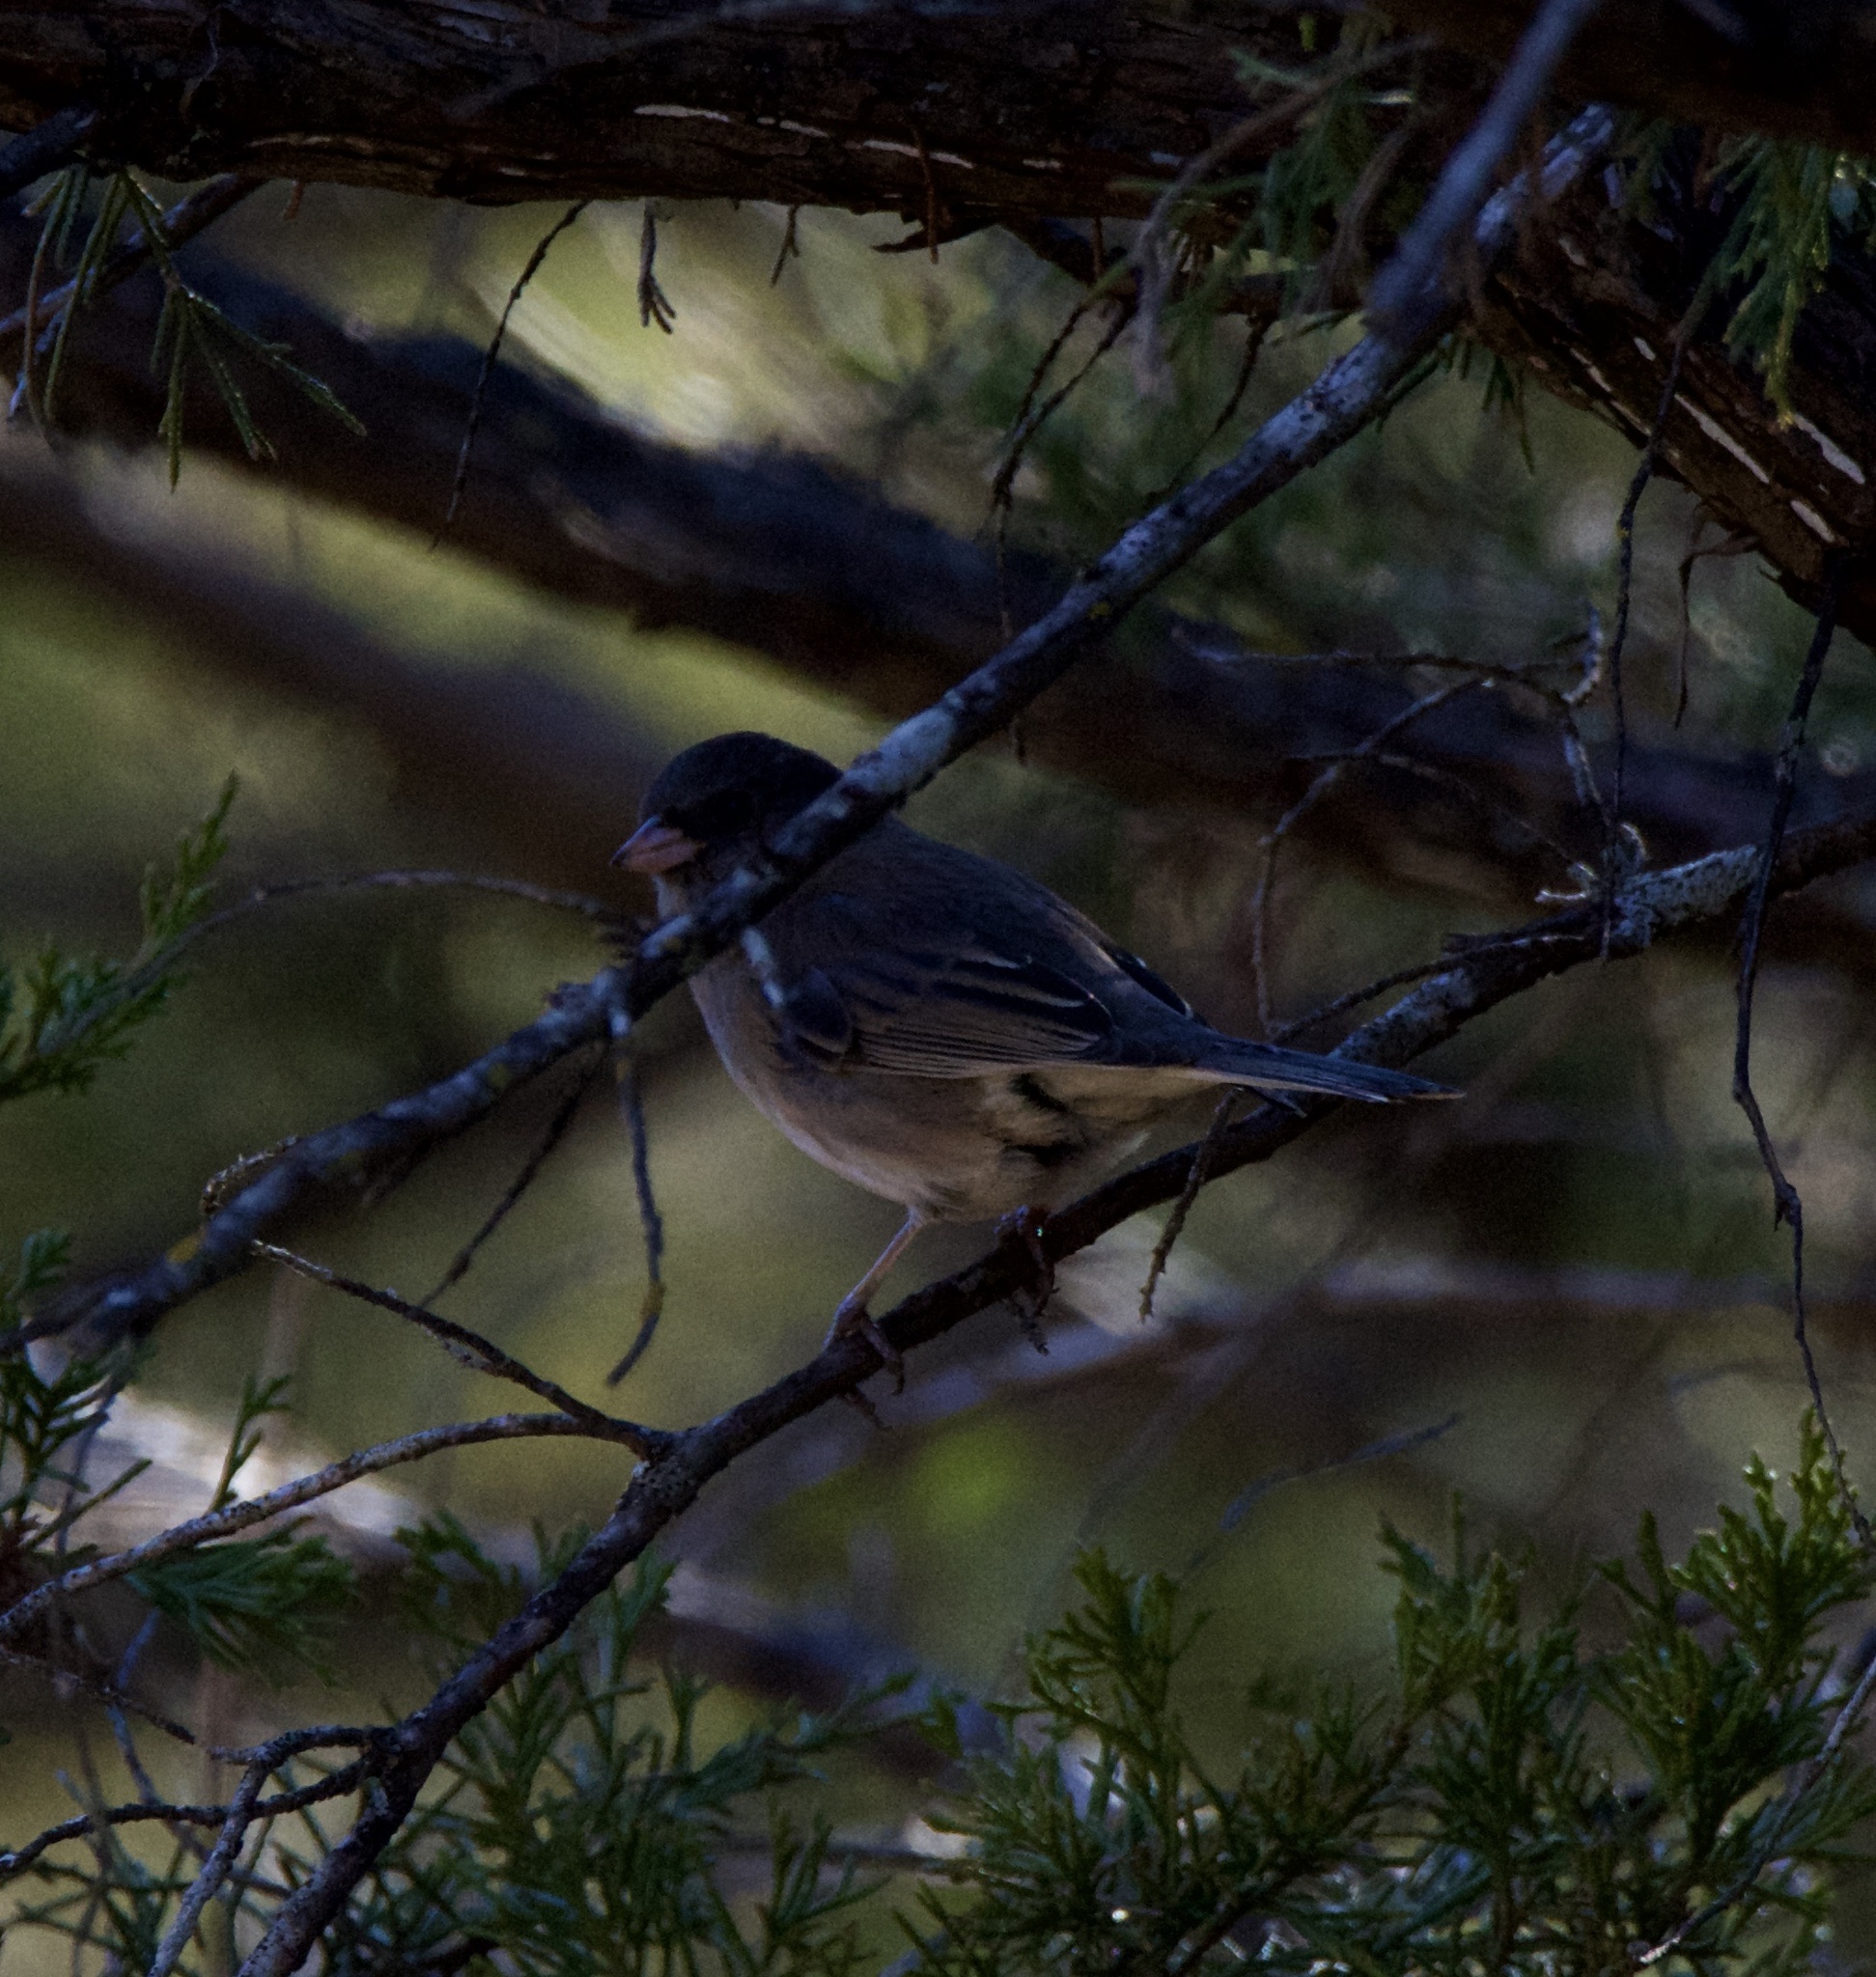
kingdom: Animalia
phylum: Chordata
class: Aves
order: Passeriformes
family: Passerellidae
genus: Junco
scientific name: Junco hyemalis
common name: Dark-eyed junco
